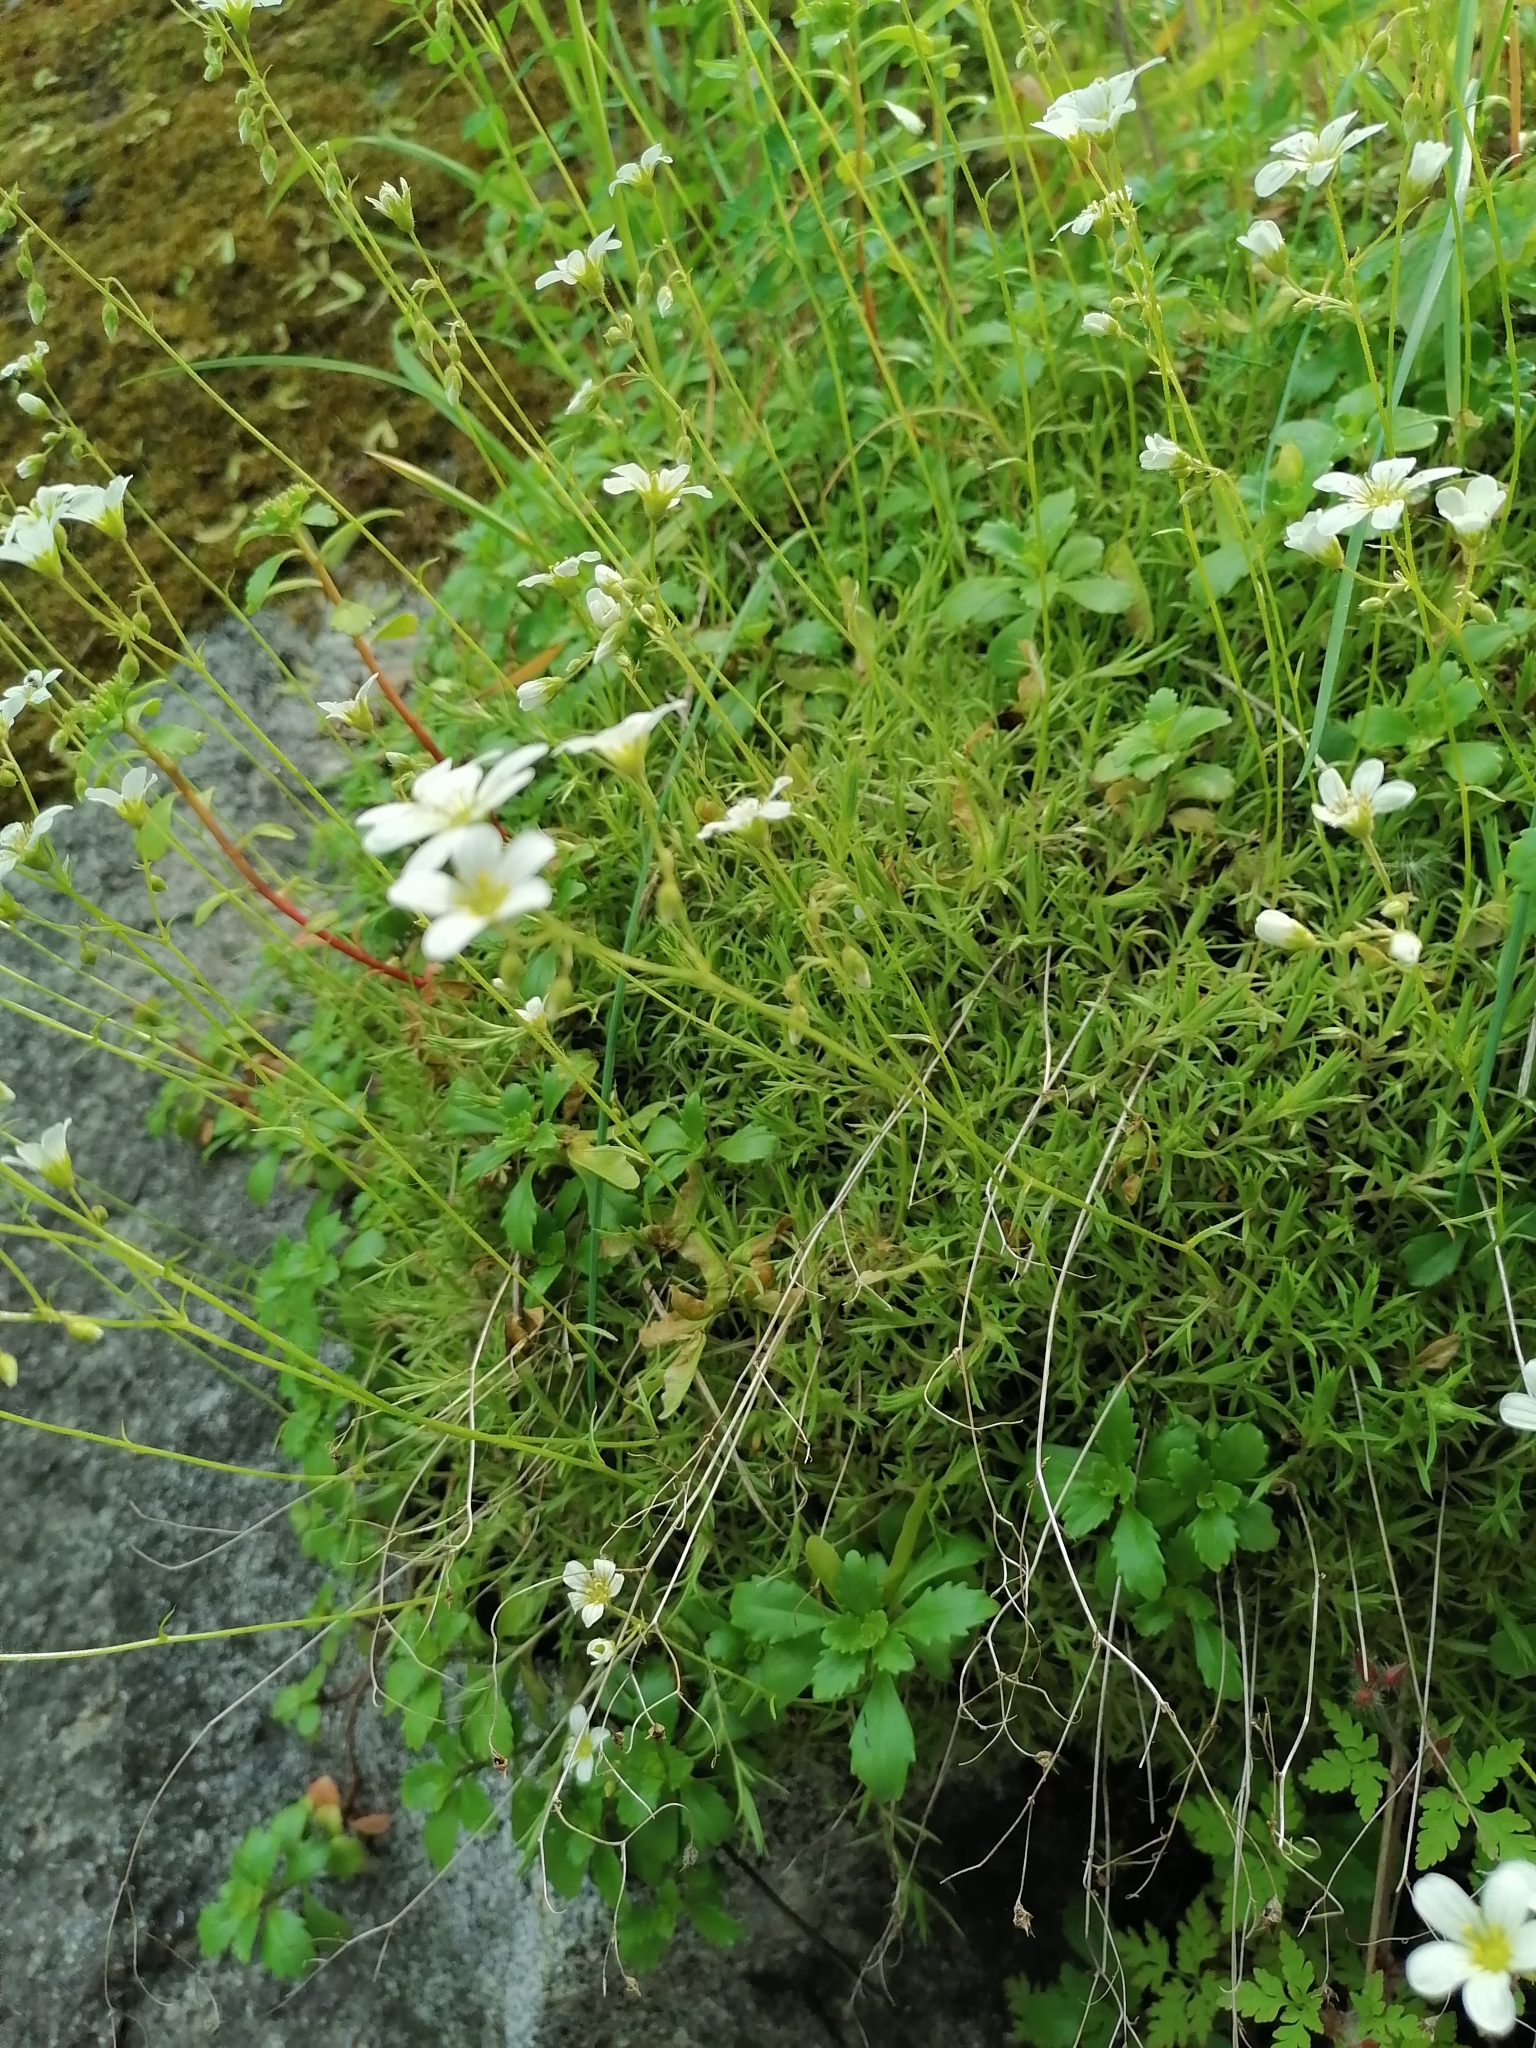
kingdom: Plantae
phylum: Tracheophyta
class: Magnoliopsida
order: Saxifragales
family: Saxifragaceae
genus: Saxifraga
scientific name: Saxifraga hypnoides
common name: Mossy saxifrage
